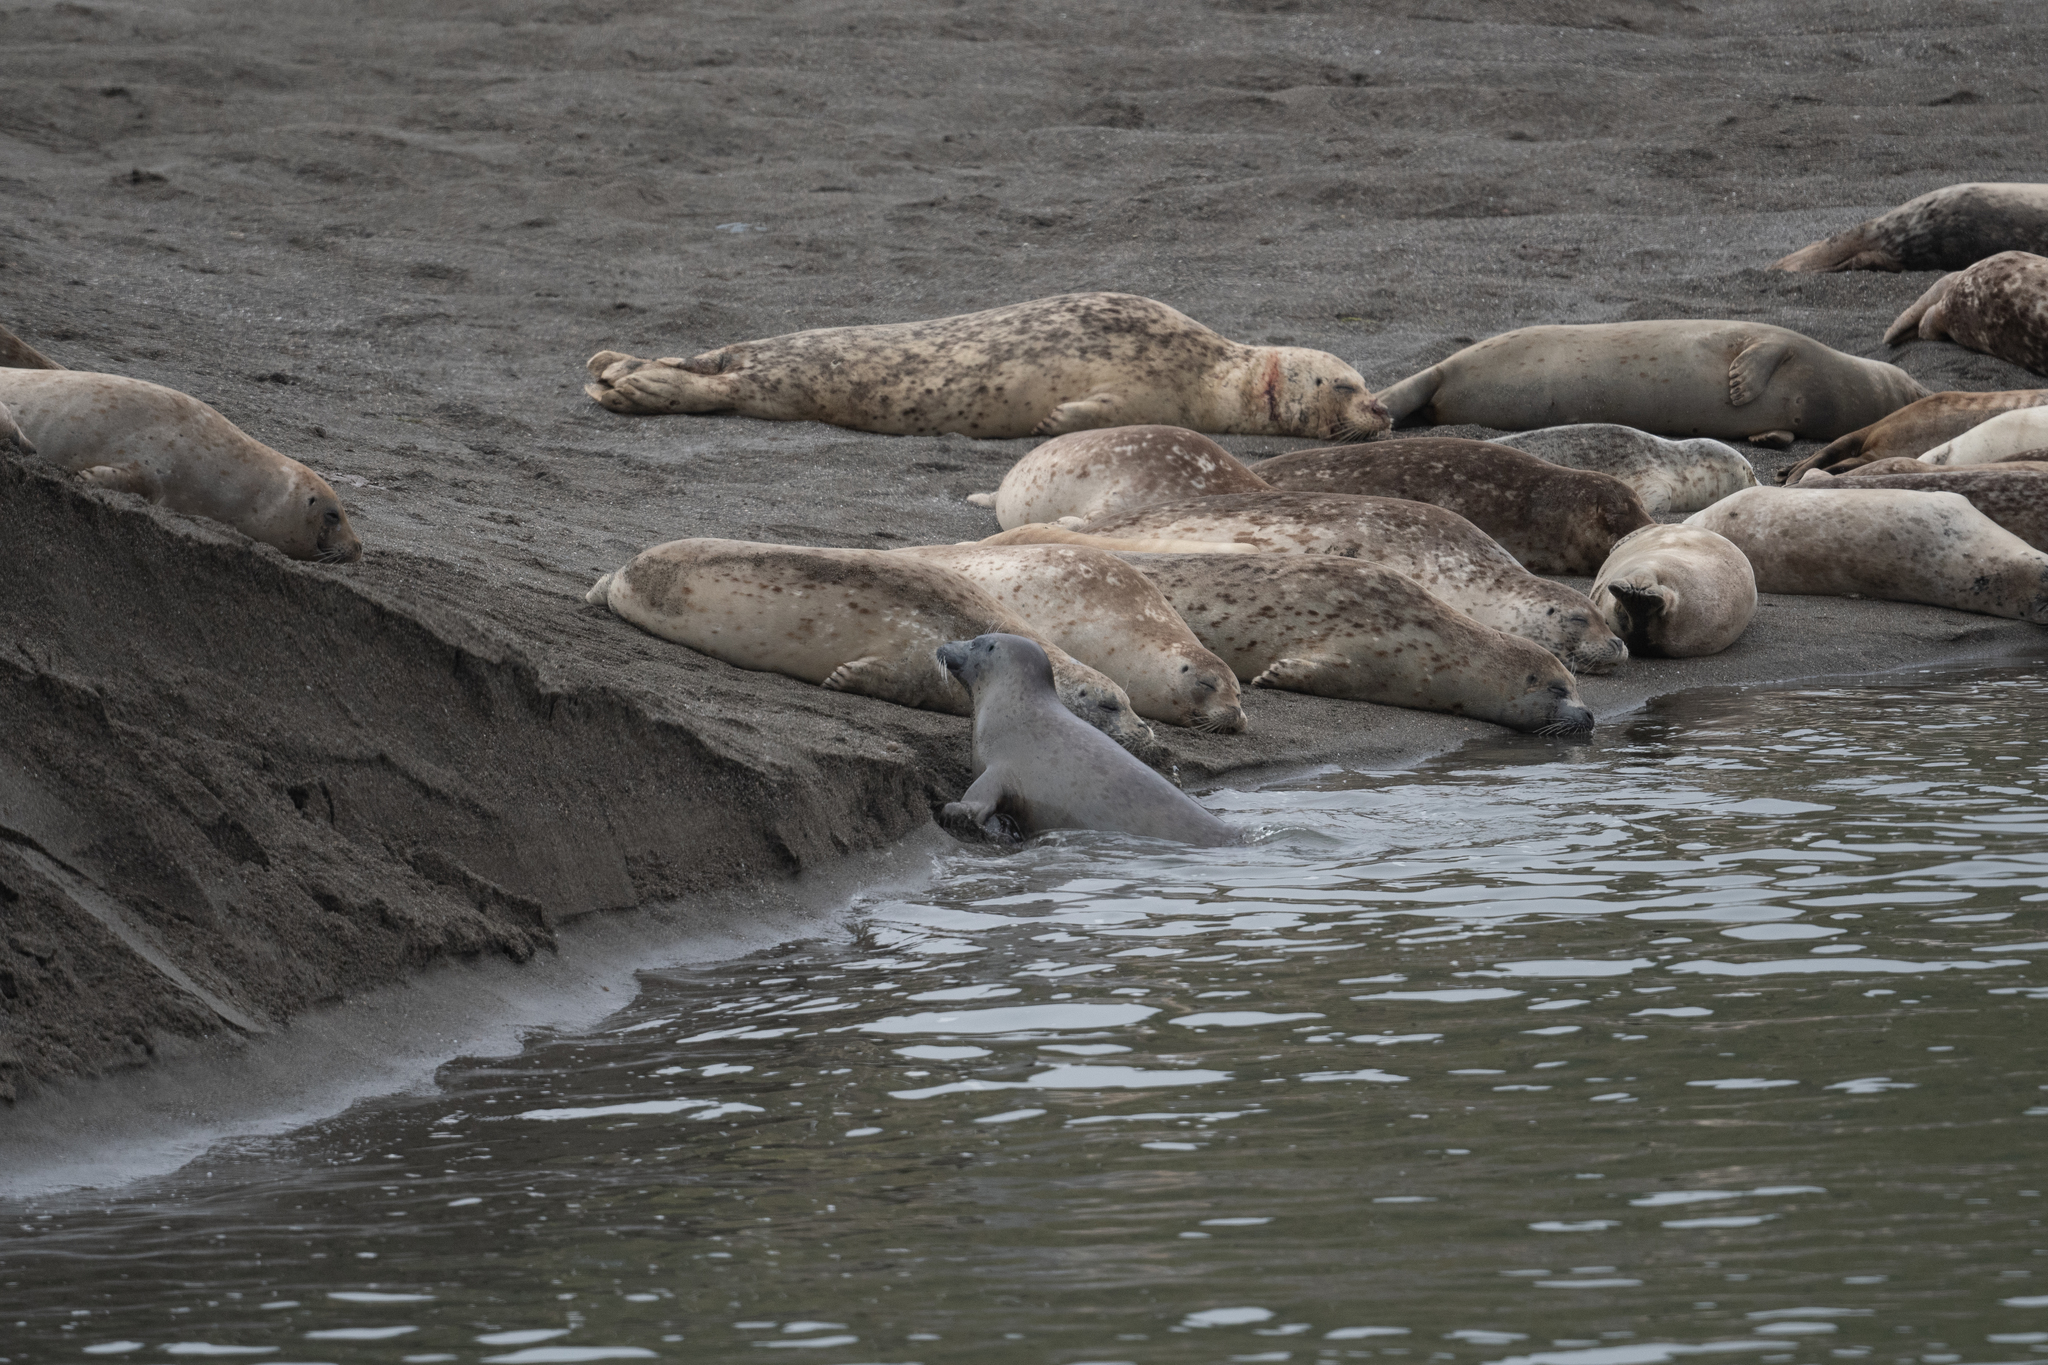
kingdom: Animalia
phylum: Chordata
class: Mammalia
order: Carnivora
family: Phocidae
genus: Phoca
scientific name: Phoca vitulina
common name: Harbor seal
